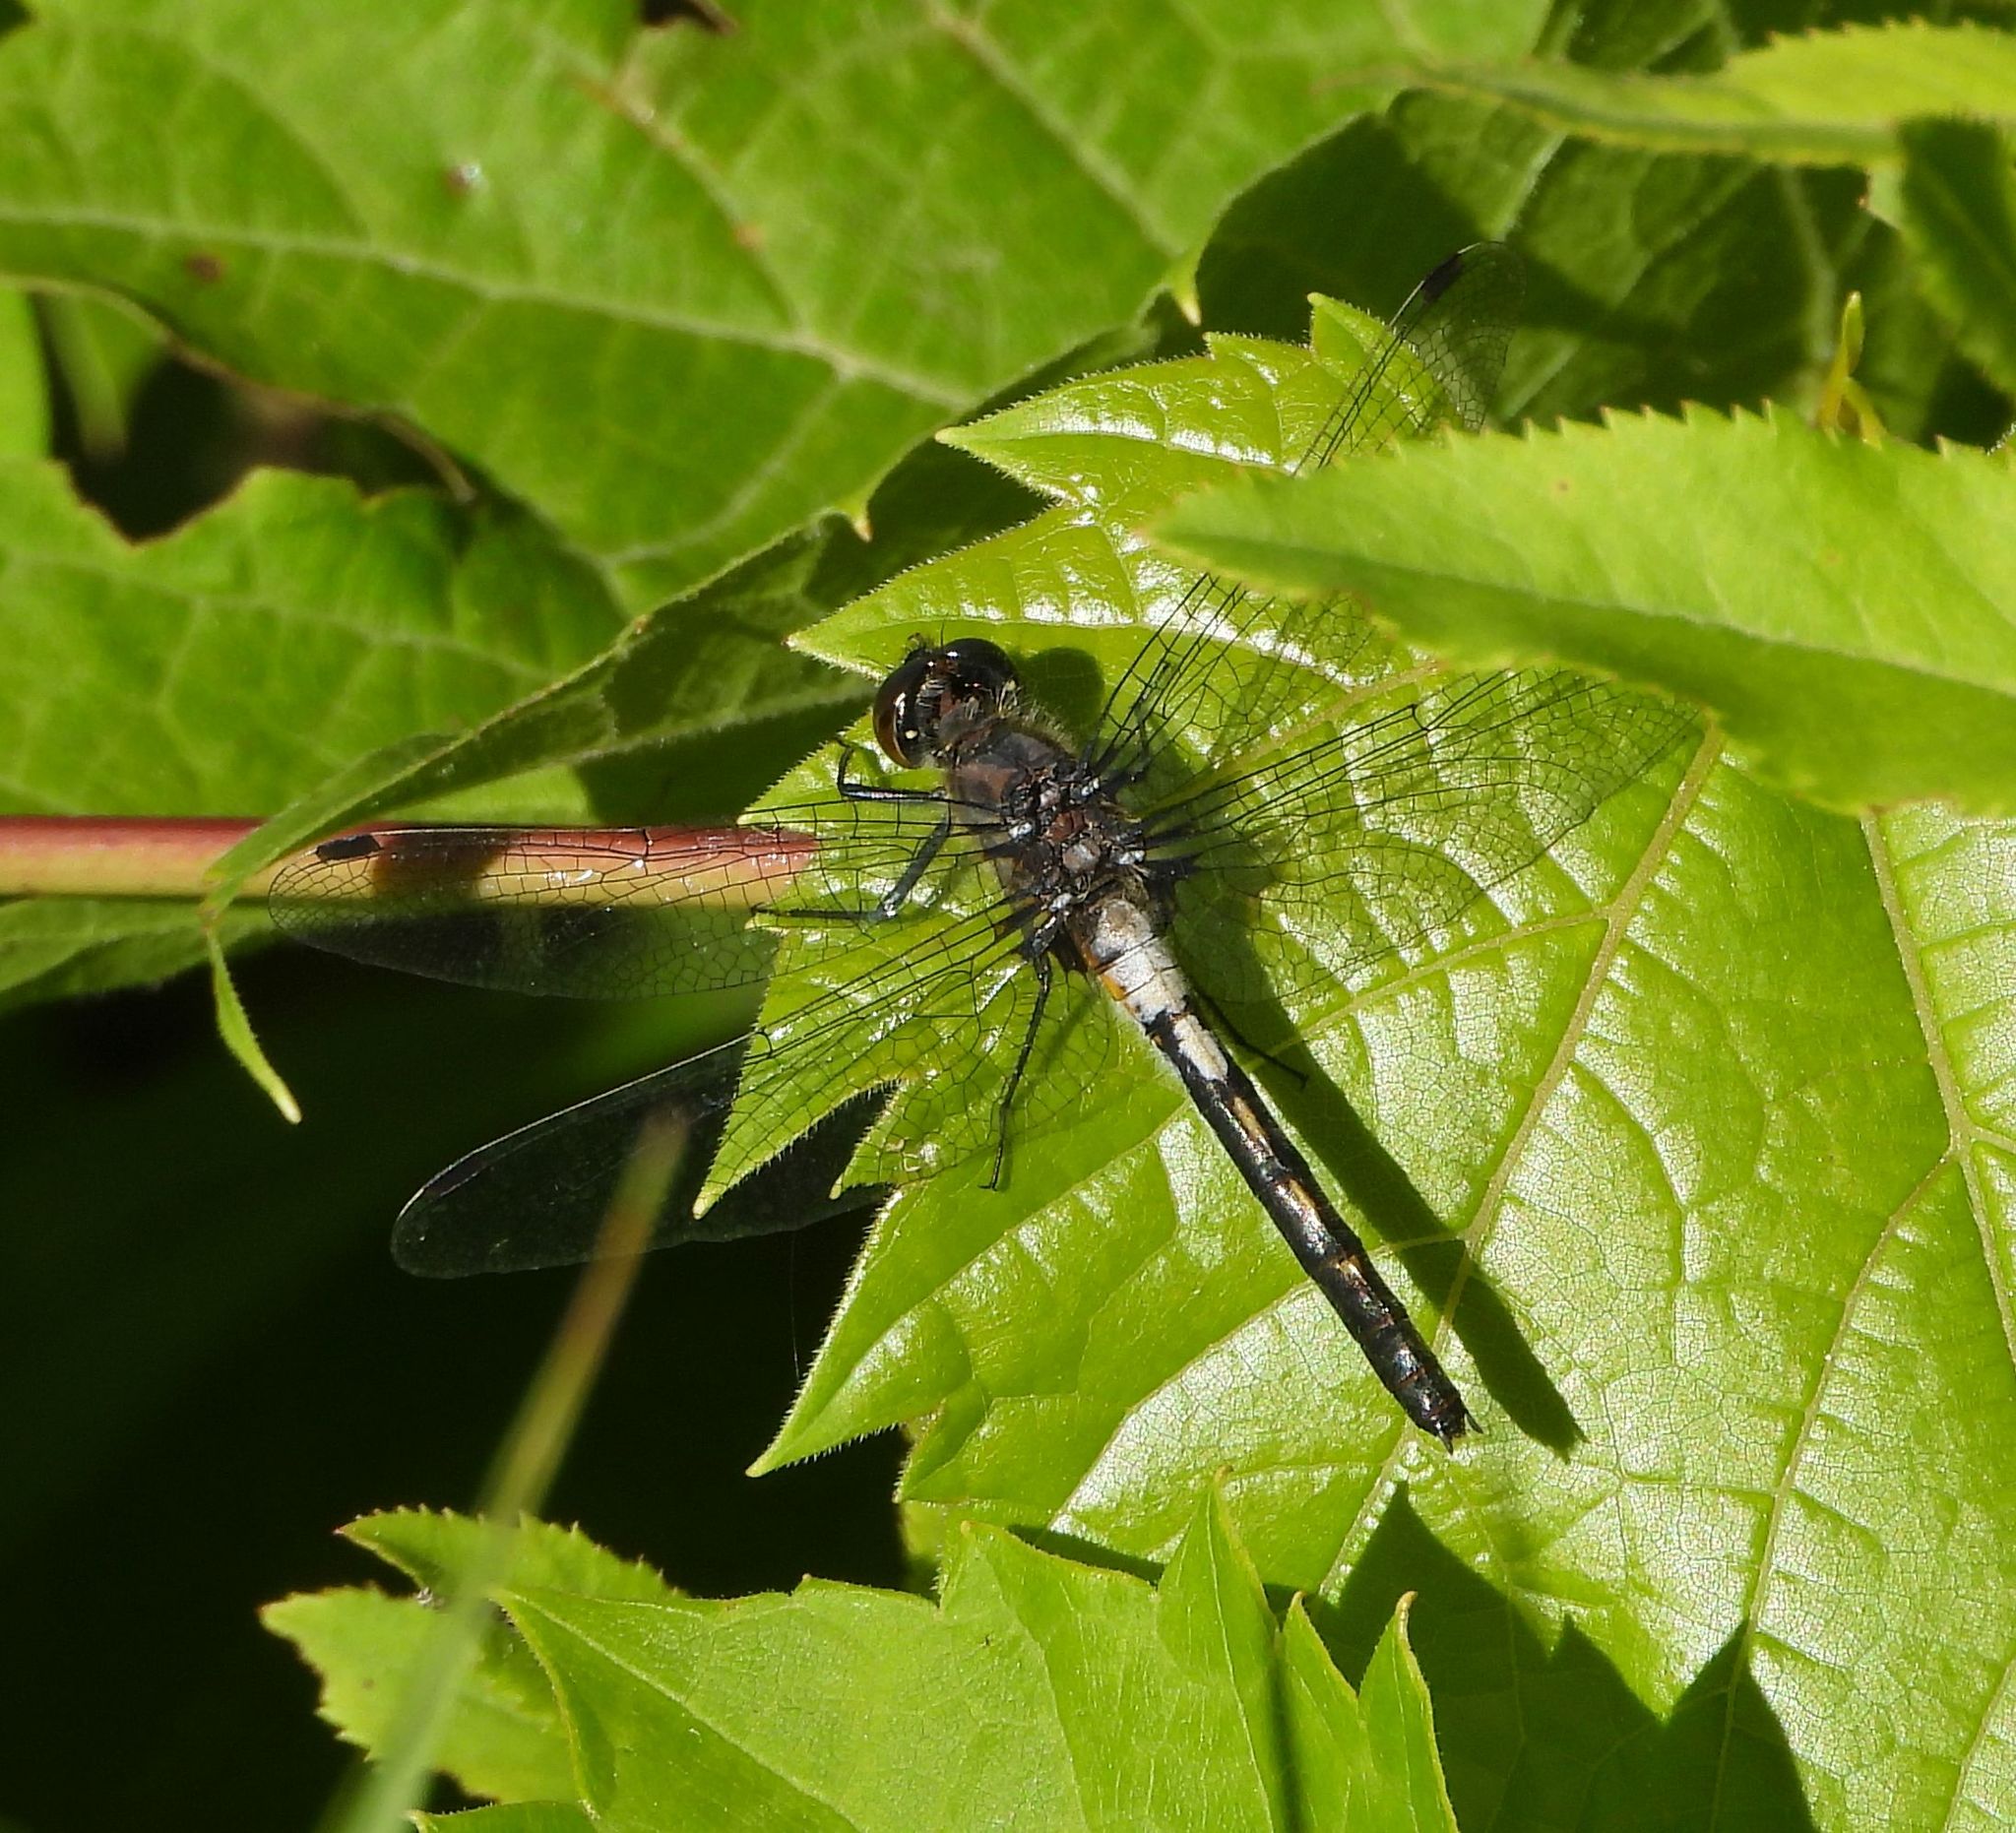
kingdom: Animalia
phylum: Arthropoda
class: Insecta
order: Odonata
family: Libellulidae
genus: Leucorrhinia
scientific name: Leucorrhinia proxima
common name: Belted whiteface
